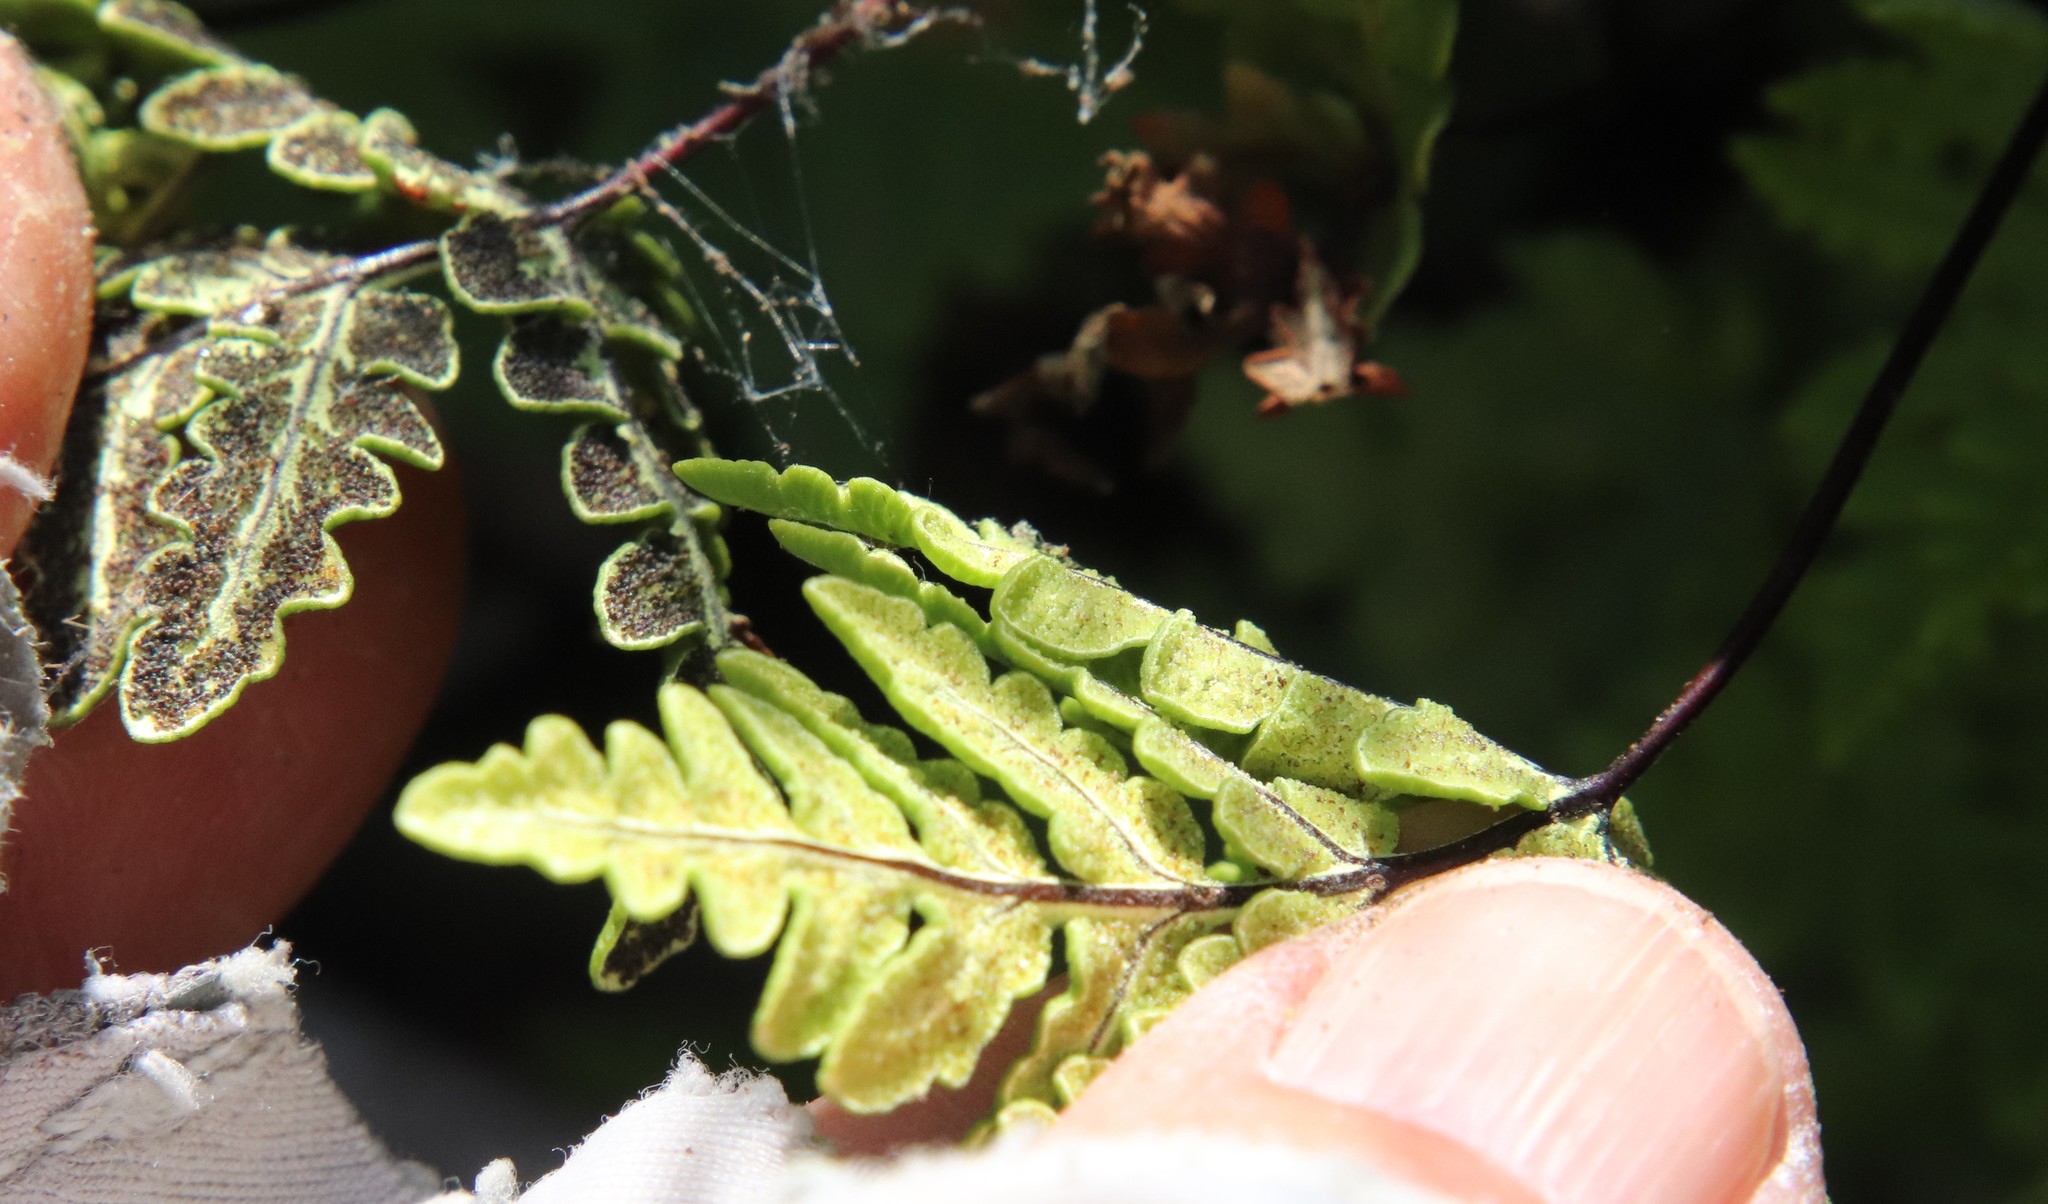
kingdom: Plantae
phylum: Tracheophyta
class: Polypodiopsida
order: Polypodiales
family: Pteridaceae
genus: Pentagramma
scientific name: Pentagramma triangularis
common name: Gold fern
